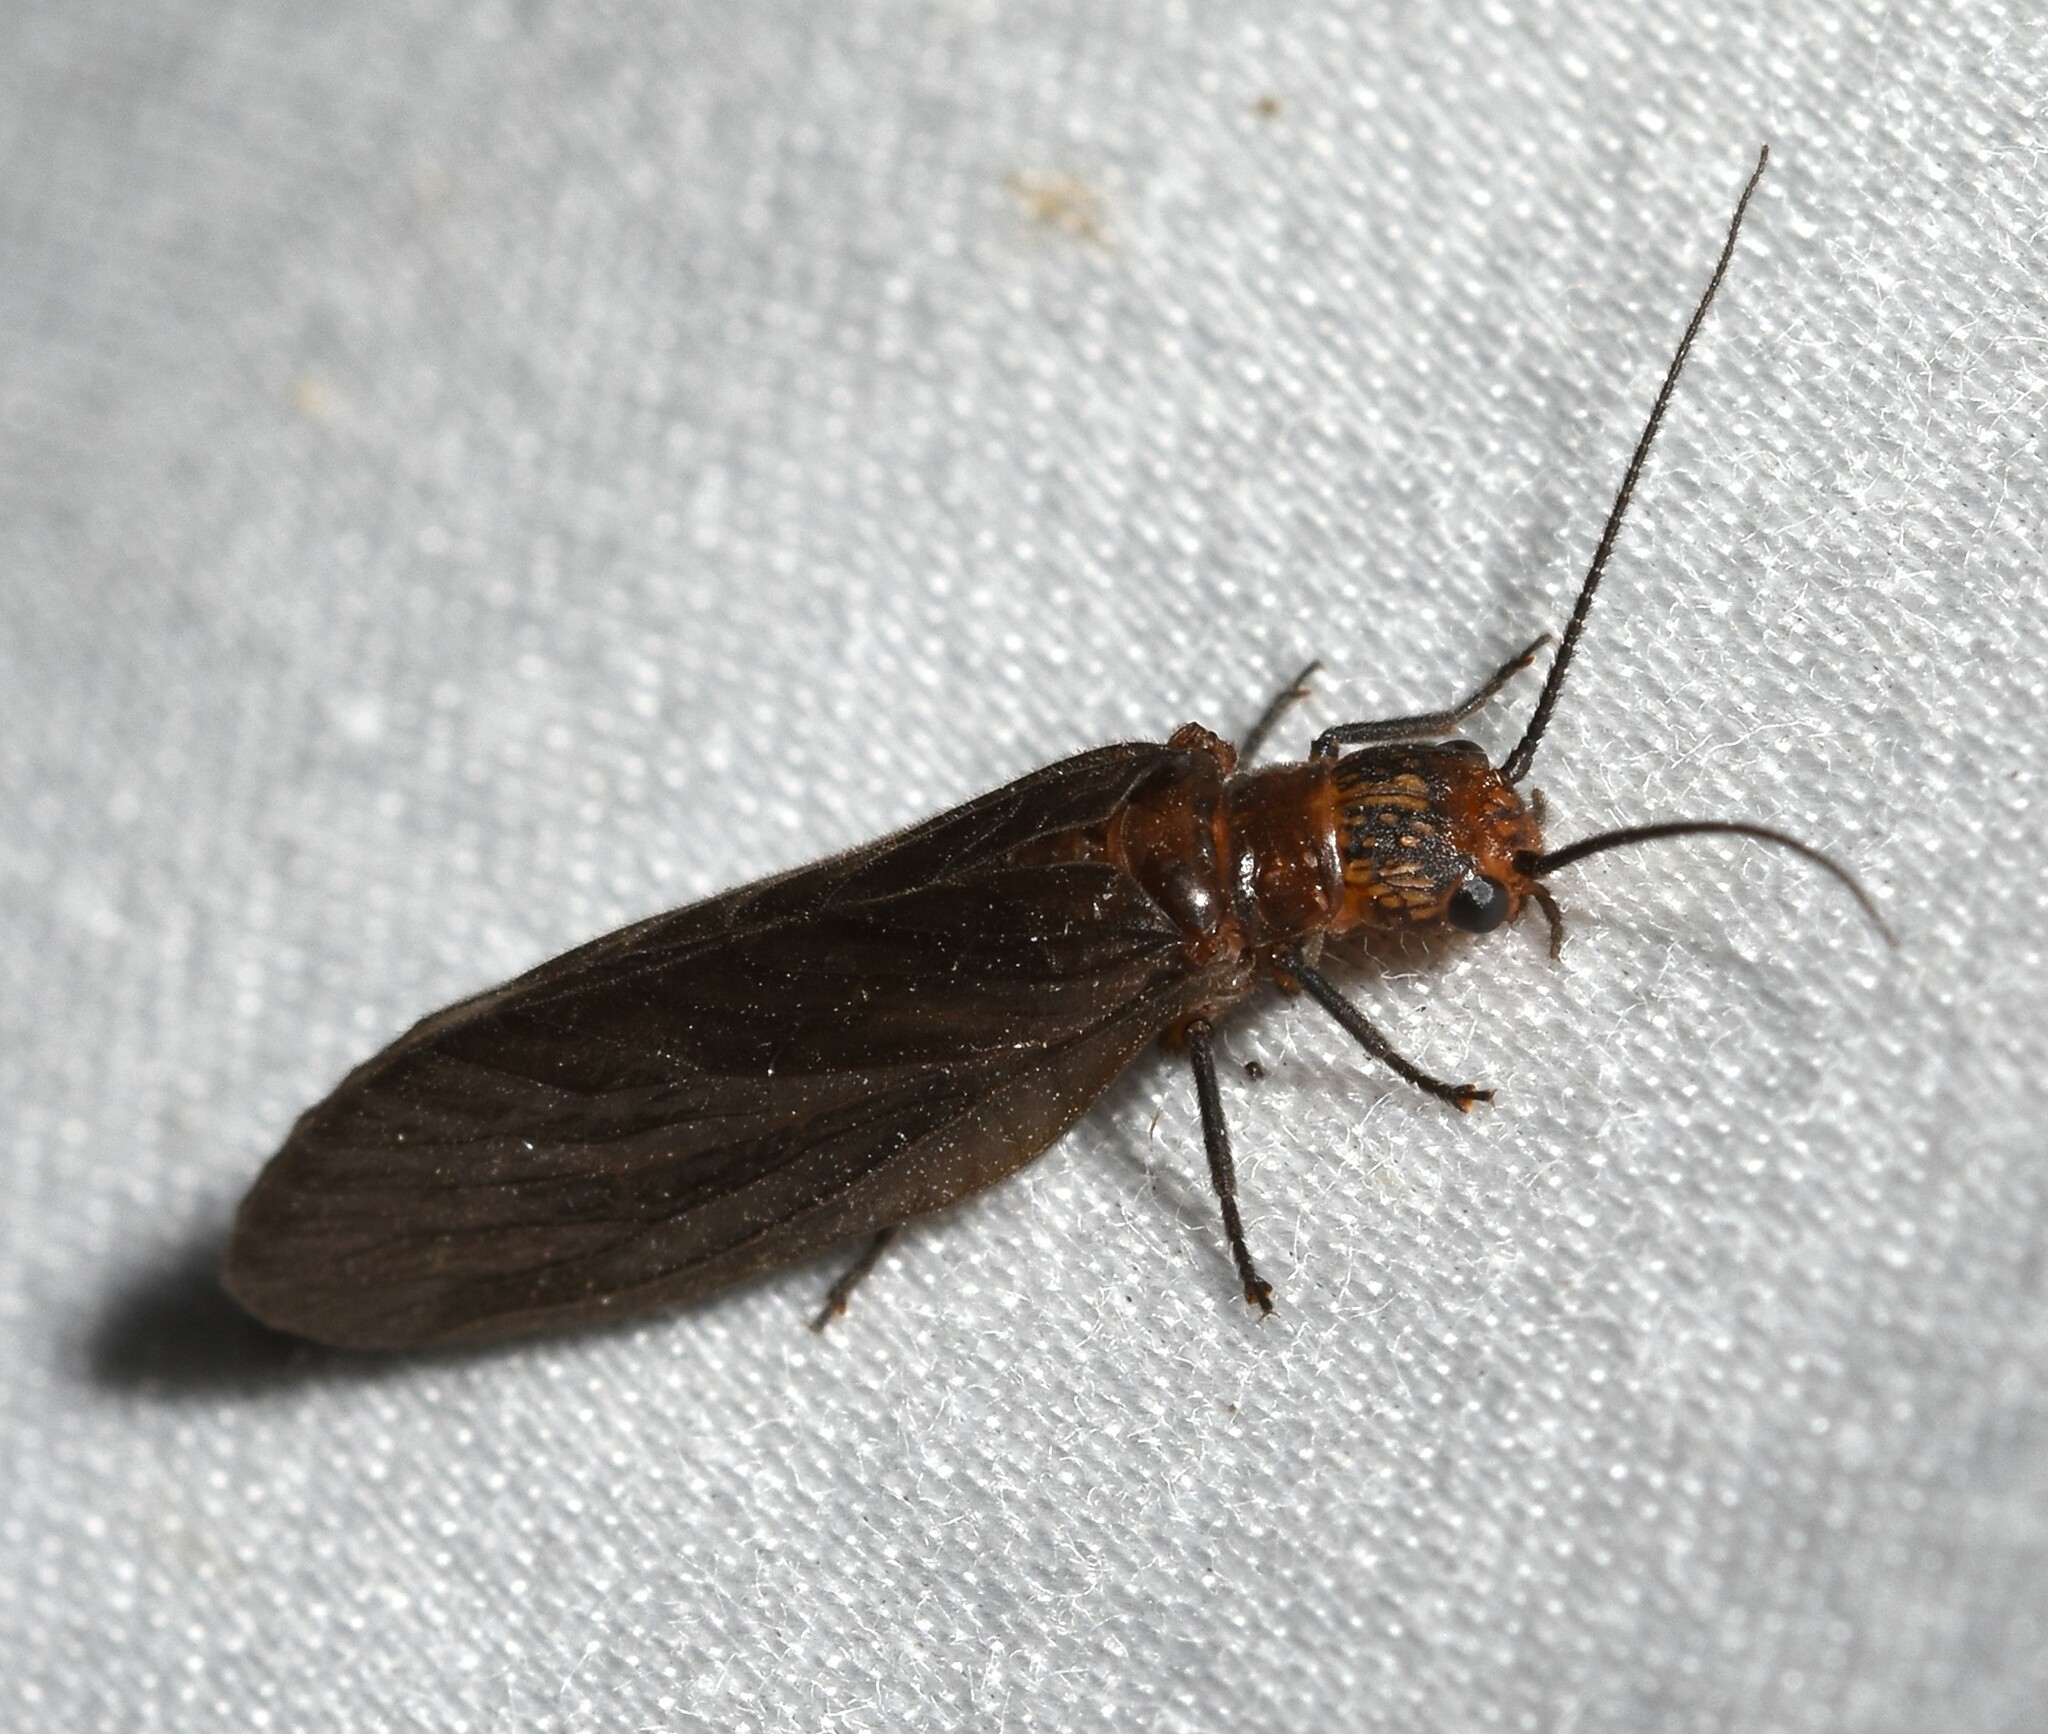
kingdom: Animalia
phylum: Arthropoda
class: Insecta
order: Megaloptera
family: Sialidae
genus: Protosialis
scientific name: Protosialis americana
